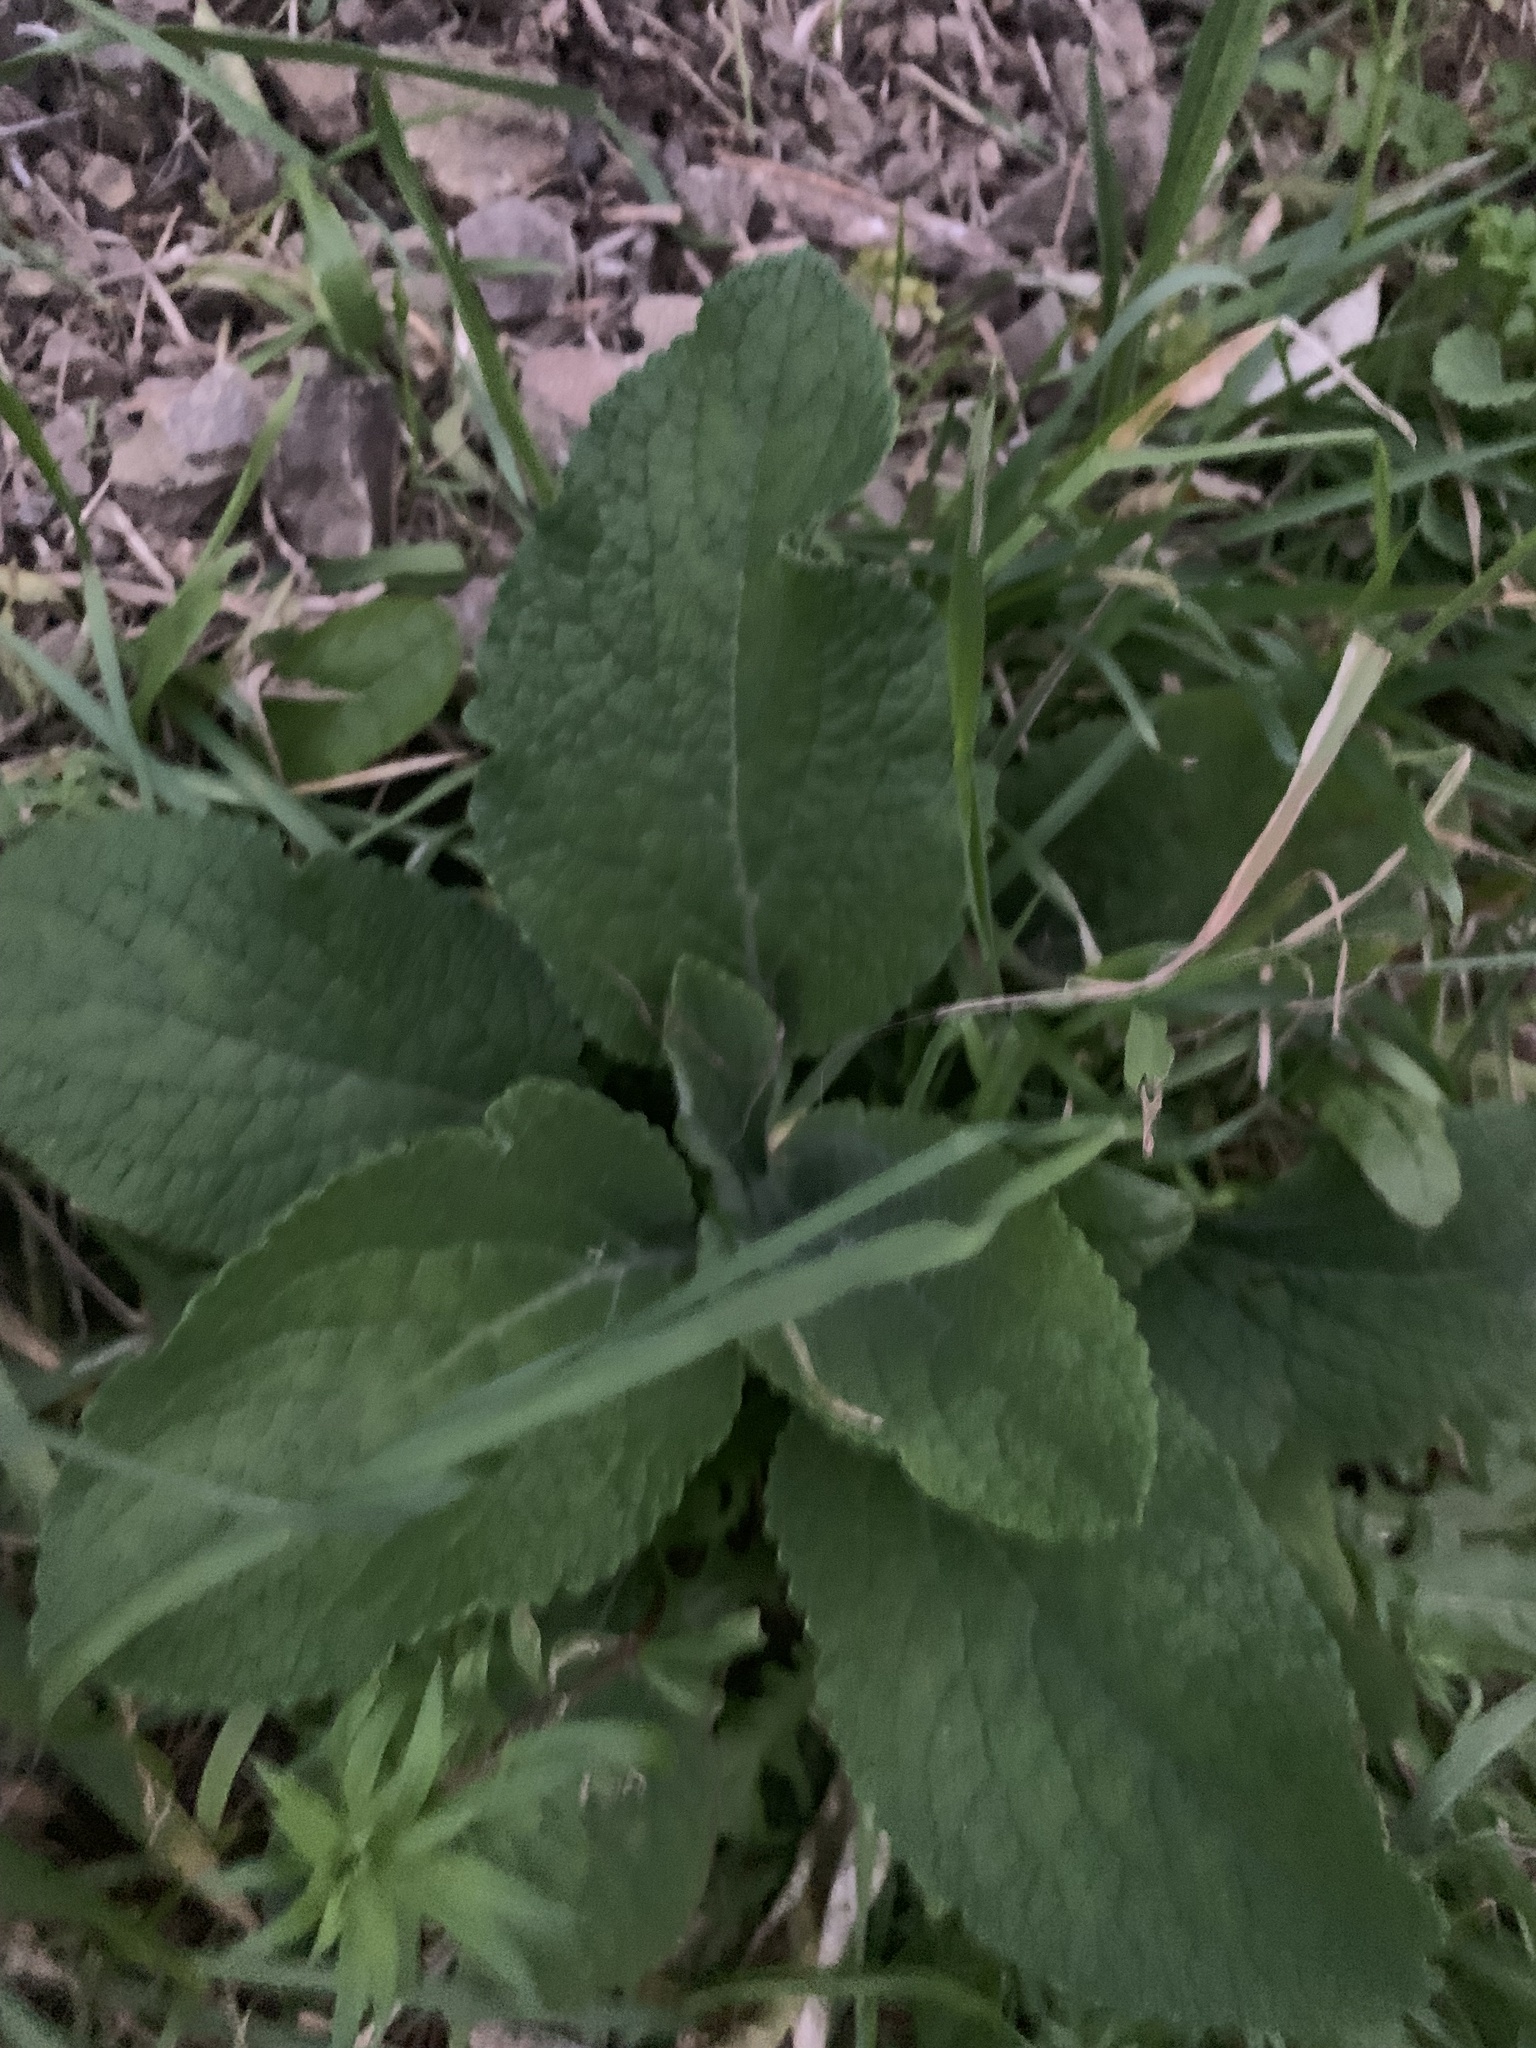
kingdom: Plantae
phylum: Tracheophyta
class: Magnoliopsida
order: Lamiales
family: Plantaginaceae
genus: Digitalis
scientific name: Digitalis purpurea
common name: Foxglove
